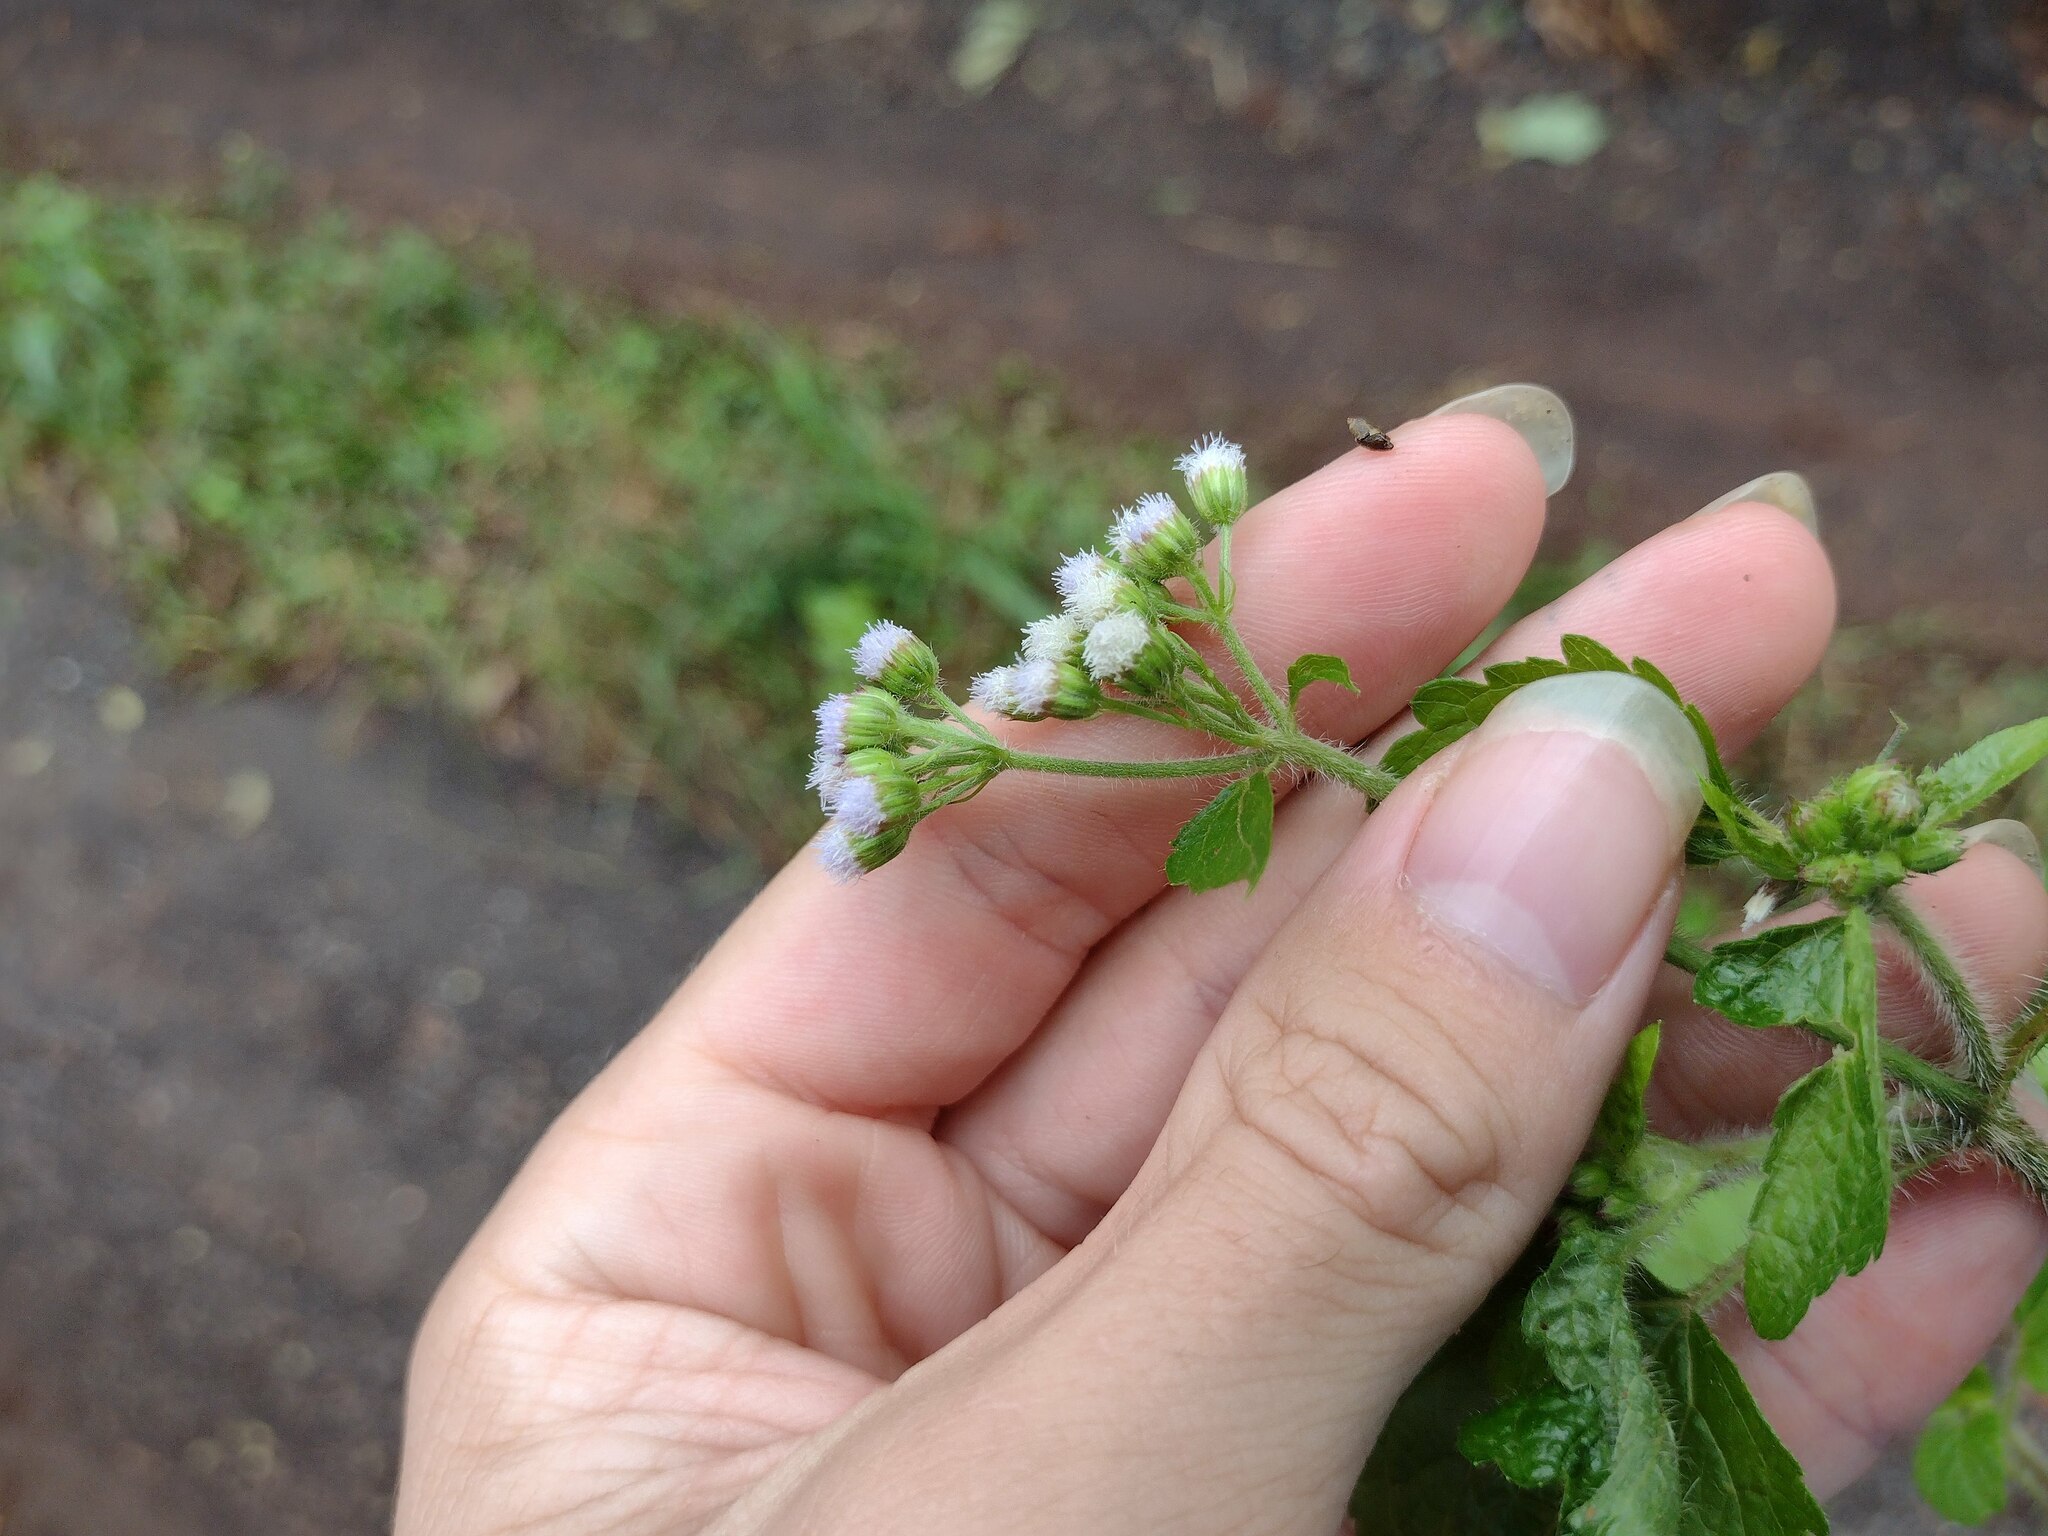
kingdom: Plantae
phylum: Tracheophyta
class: Magnoliopsida
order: Asterales
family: Asteraceae
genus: Ageratum
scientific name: Ageratum conyzoides
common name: Tropical whiteweed
